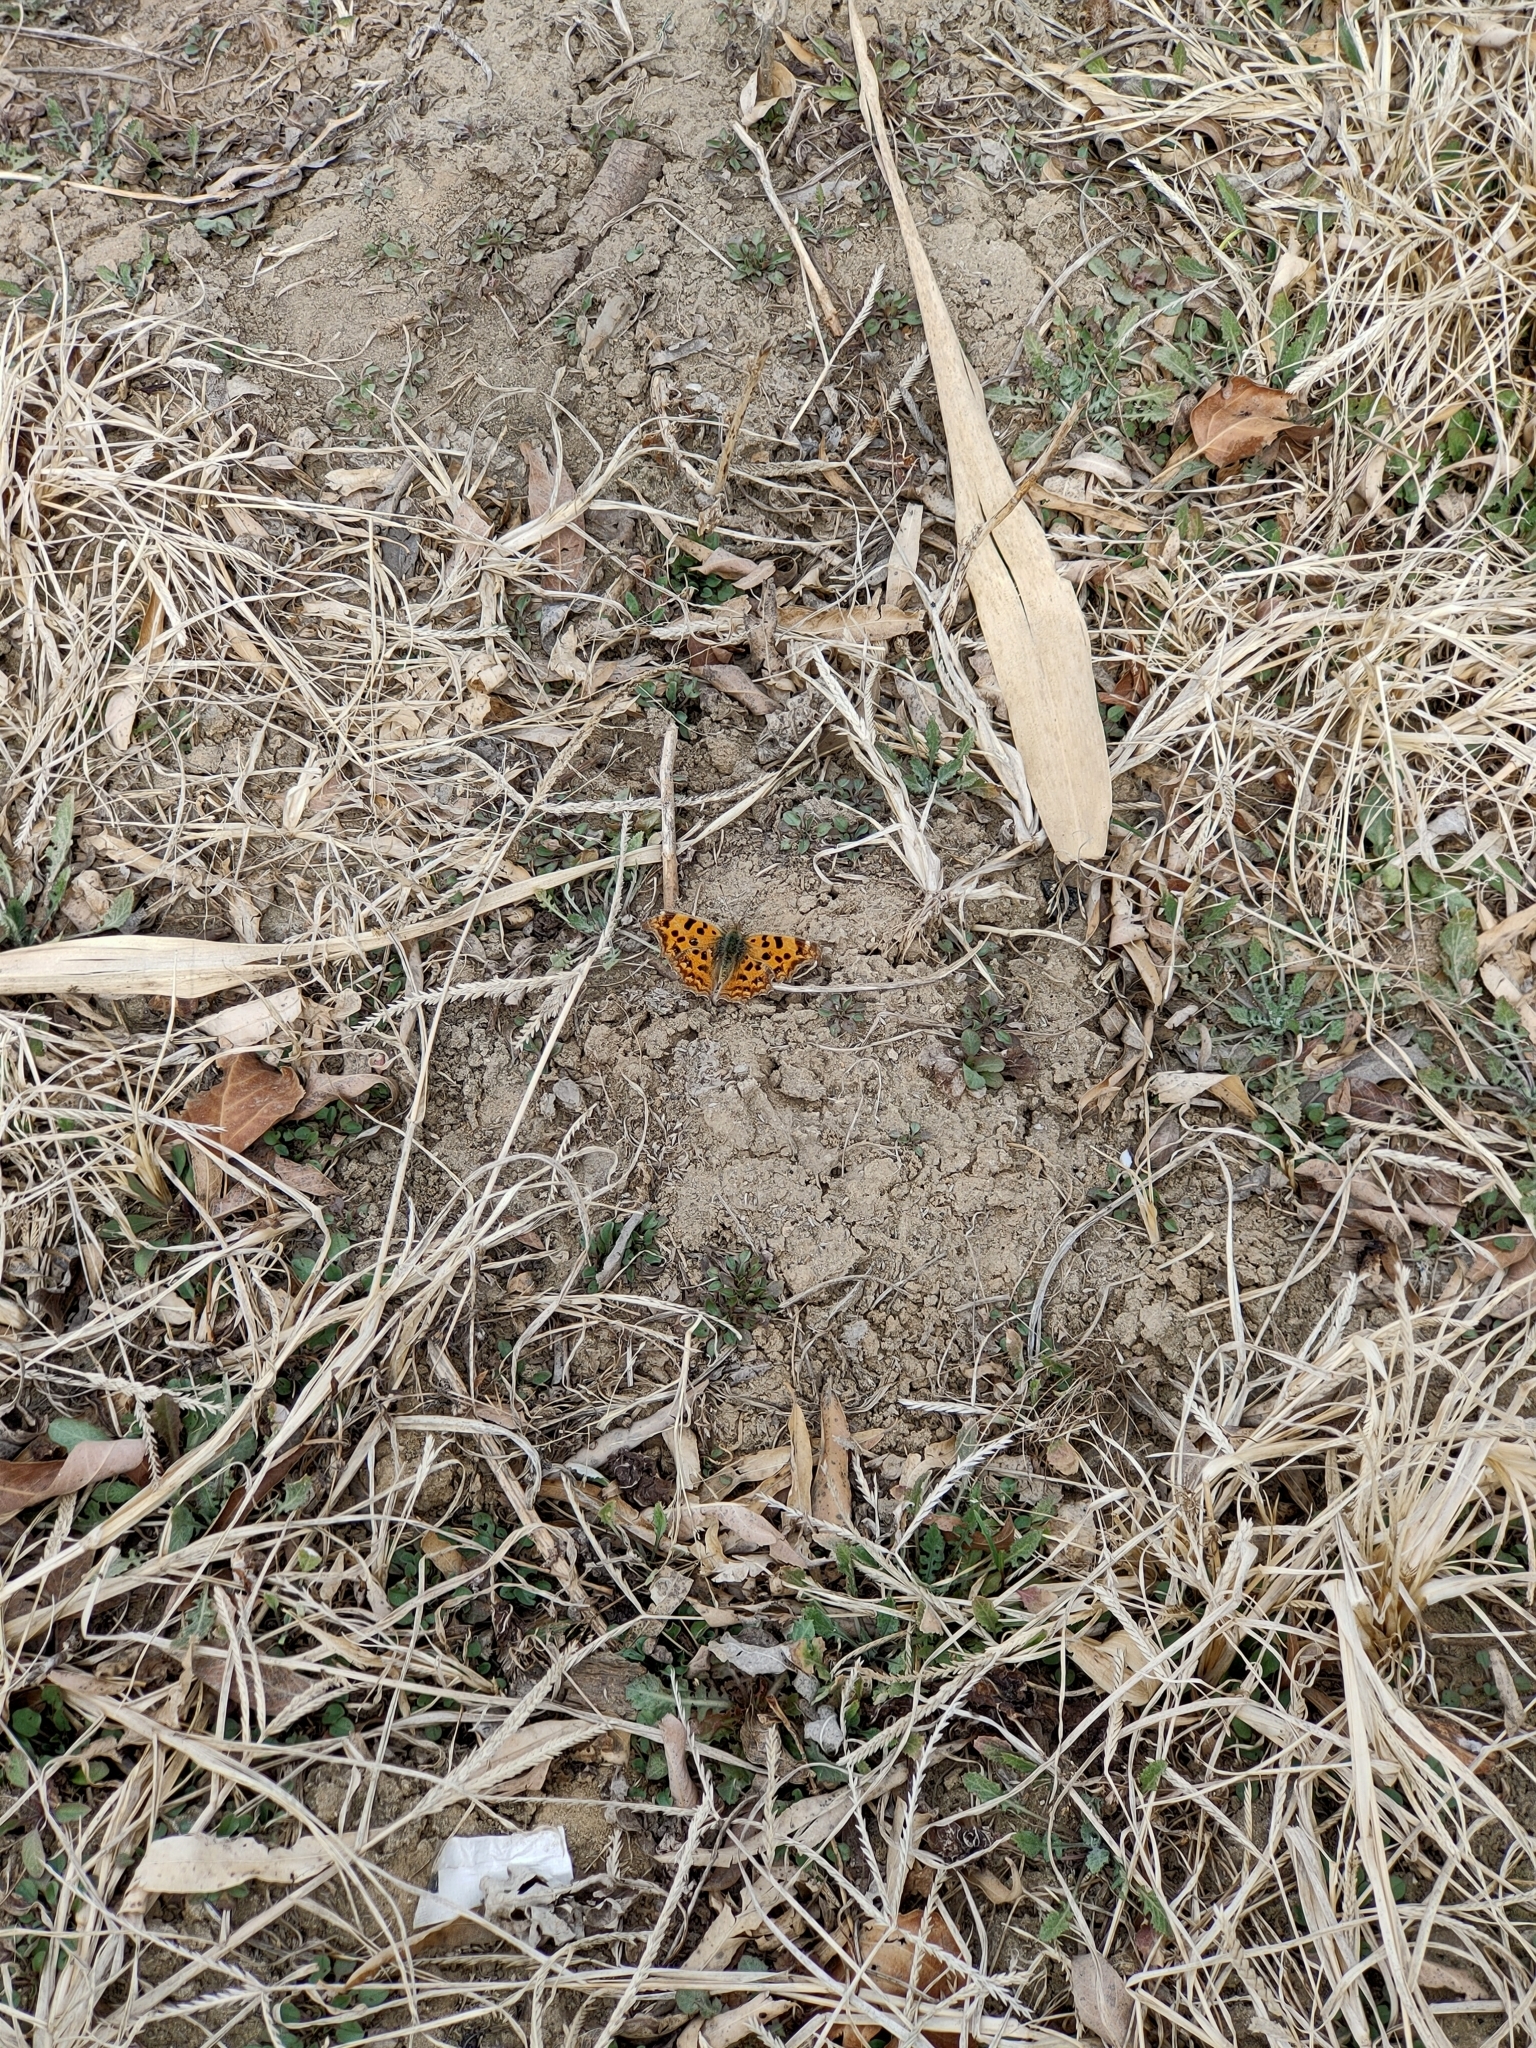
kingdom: Animalia
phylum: Arthropoda
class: Insecta
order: Lepidoptera
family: Nymphalidae
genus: Polygonia
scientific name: Polygonia c-aureum
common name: Asian comma
